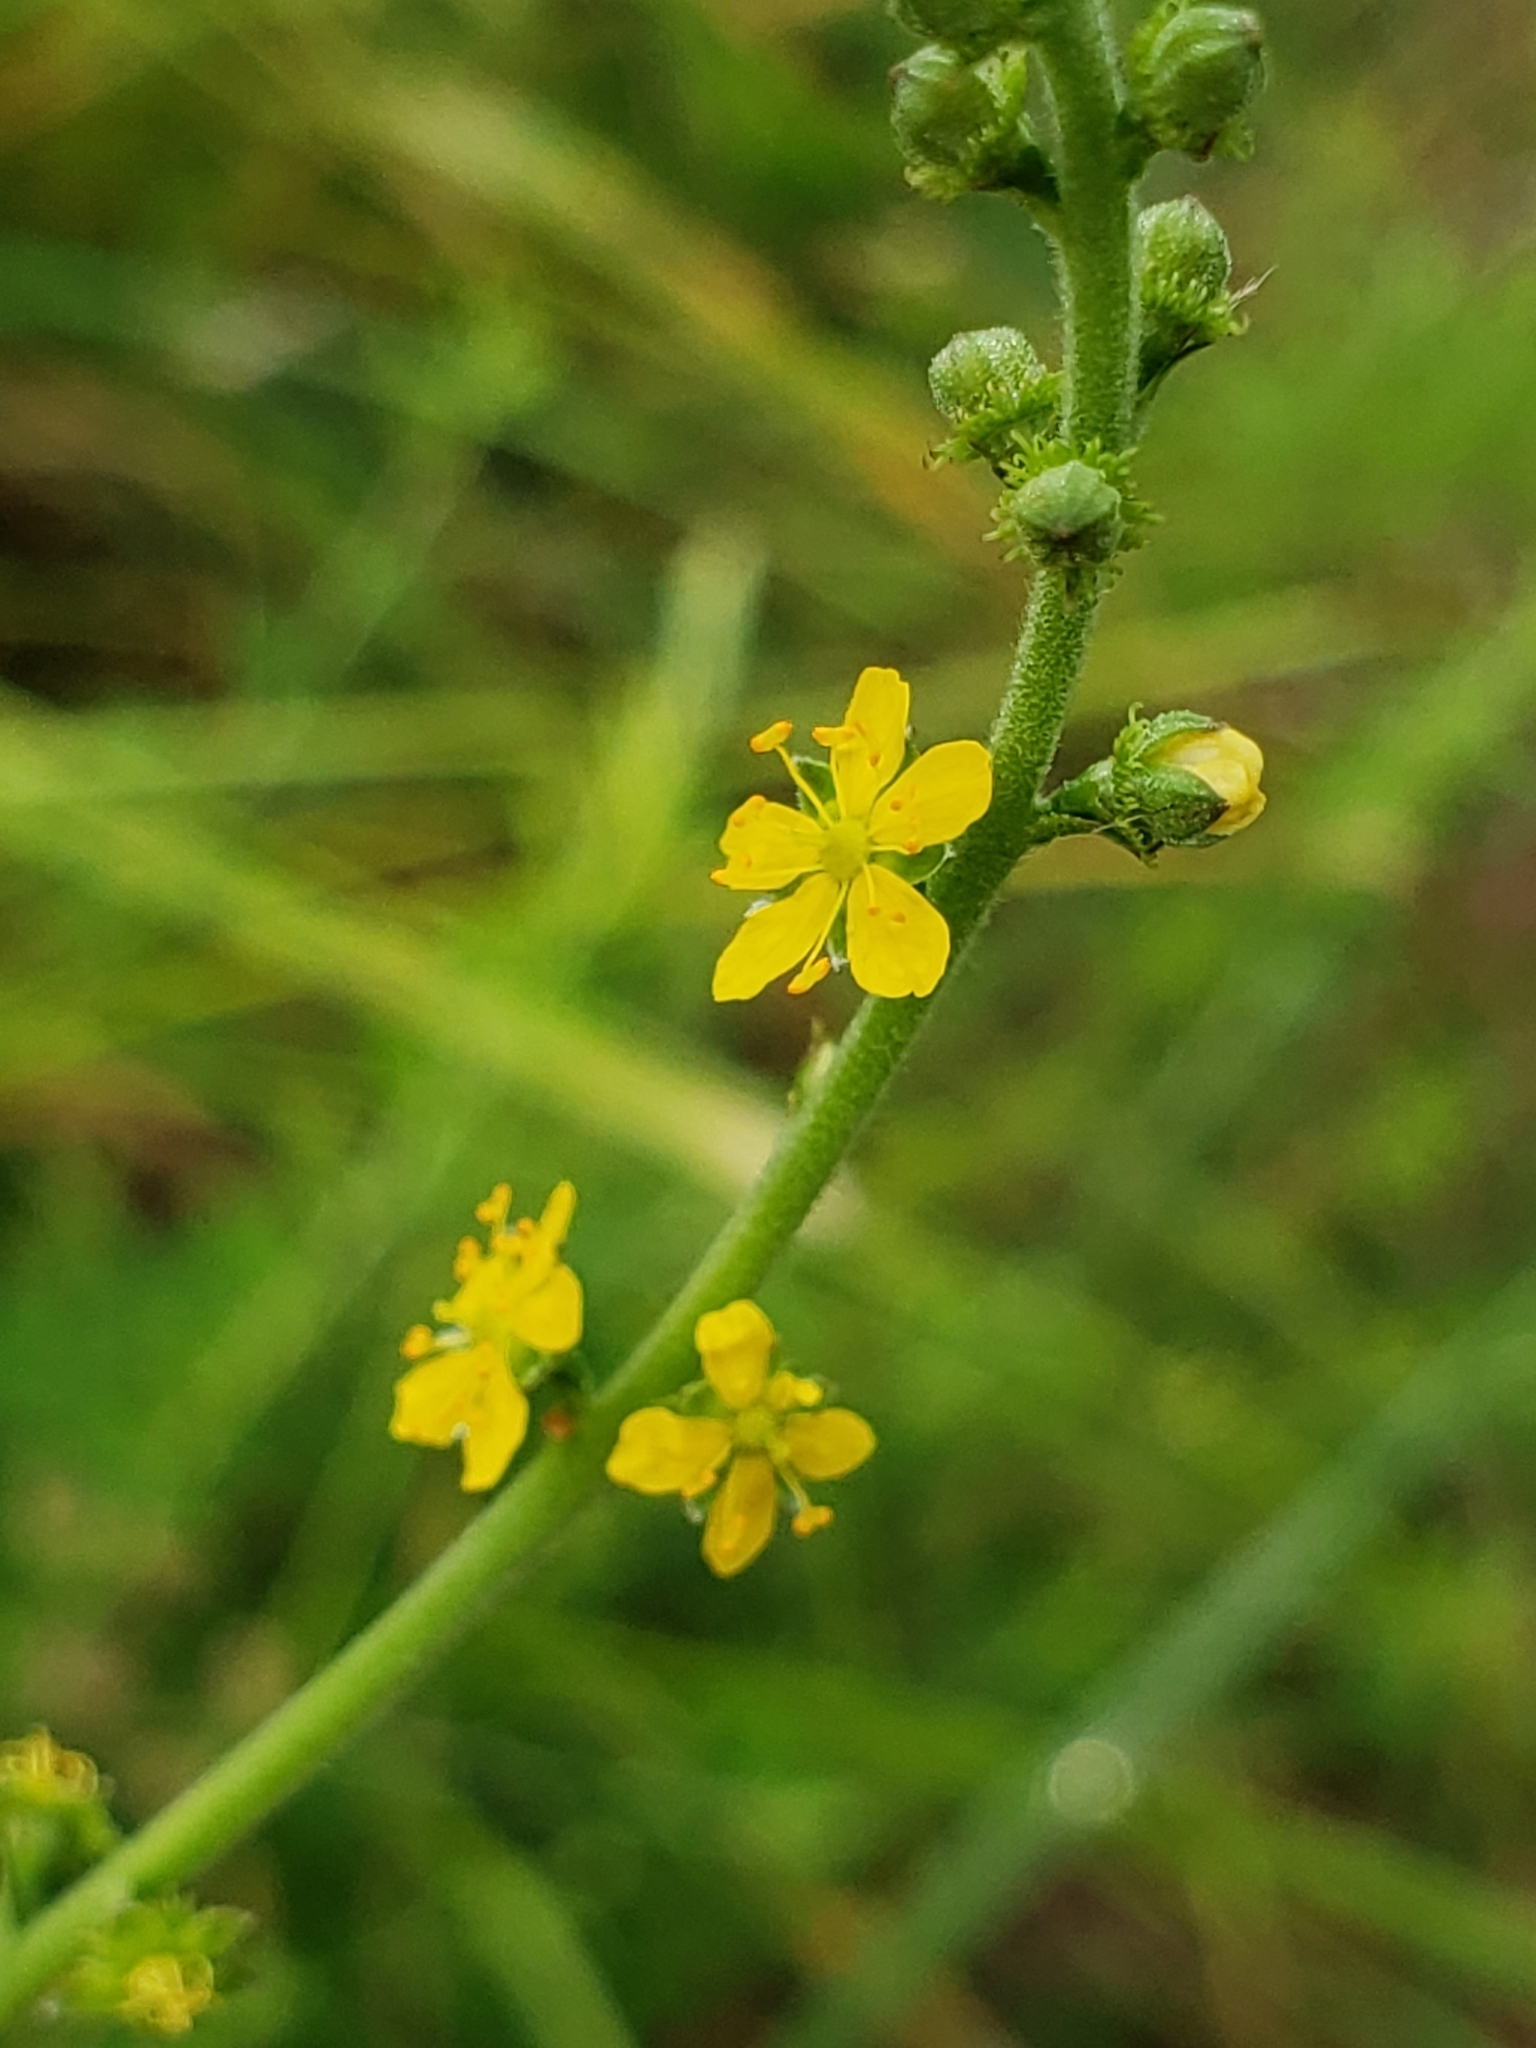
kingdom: Plantae
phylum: Tracheophyta
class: Magnoliopsida
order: Rosales
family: Rosaceae
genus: Agrimonia
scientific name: Agrimonia parviflora
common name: Harvest-lice
